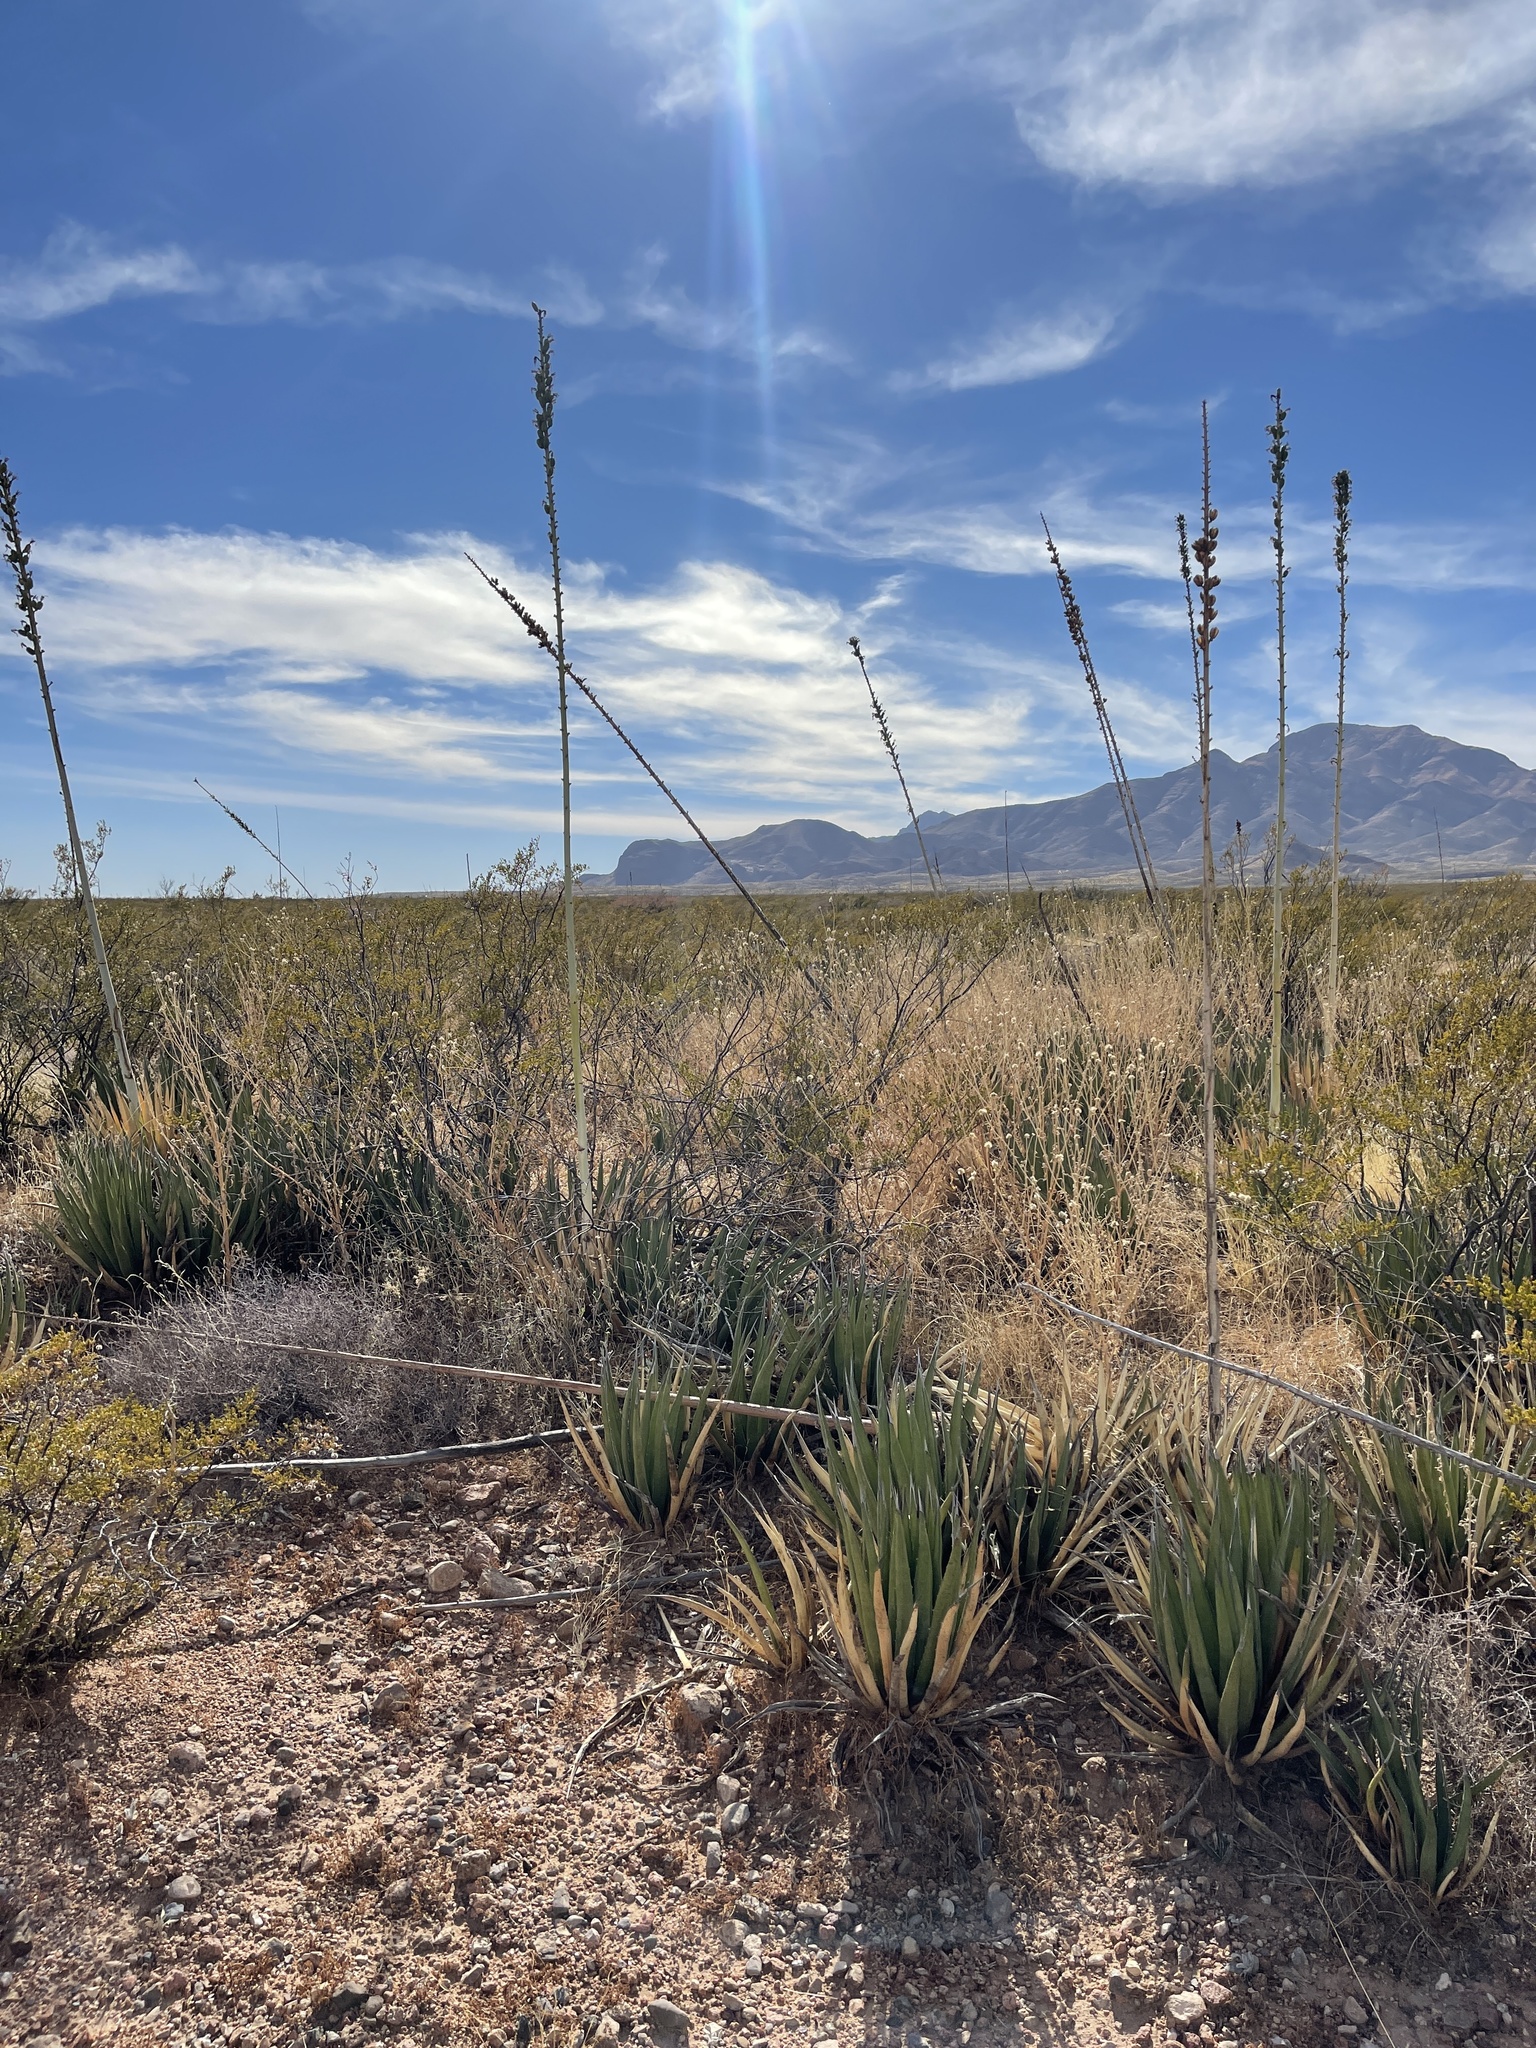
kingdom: Plantae
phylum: Tracheophyta
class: Liliopsida
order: Asparagales
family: Asparagaceae
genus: Agave
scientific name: Agave lechuguilla
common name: Lecheguilla agave
